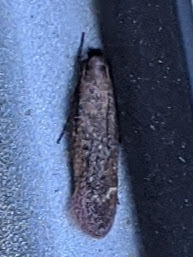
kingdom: Animalia
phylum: Arthropoda
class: Insecta
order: Lepidoptera
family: Gelechiidae
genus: Gelechia
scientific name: Gelechia desiliens
